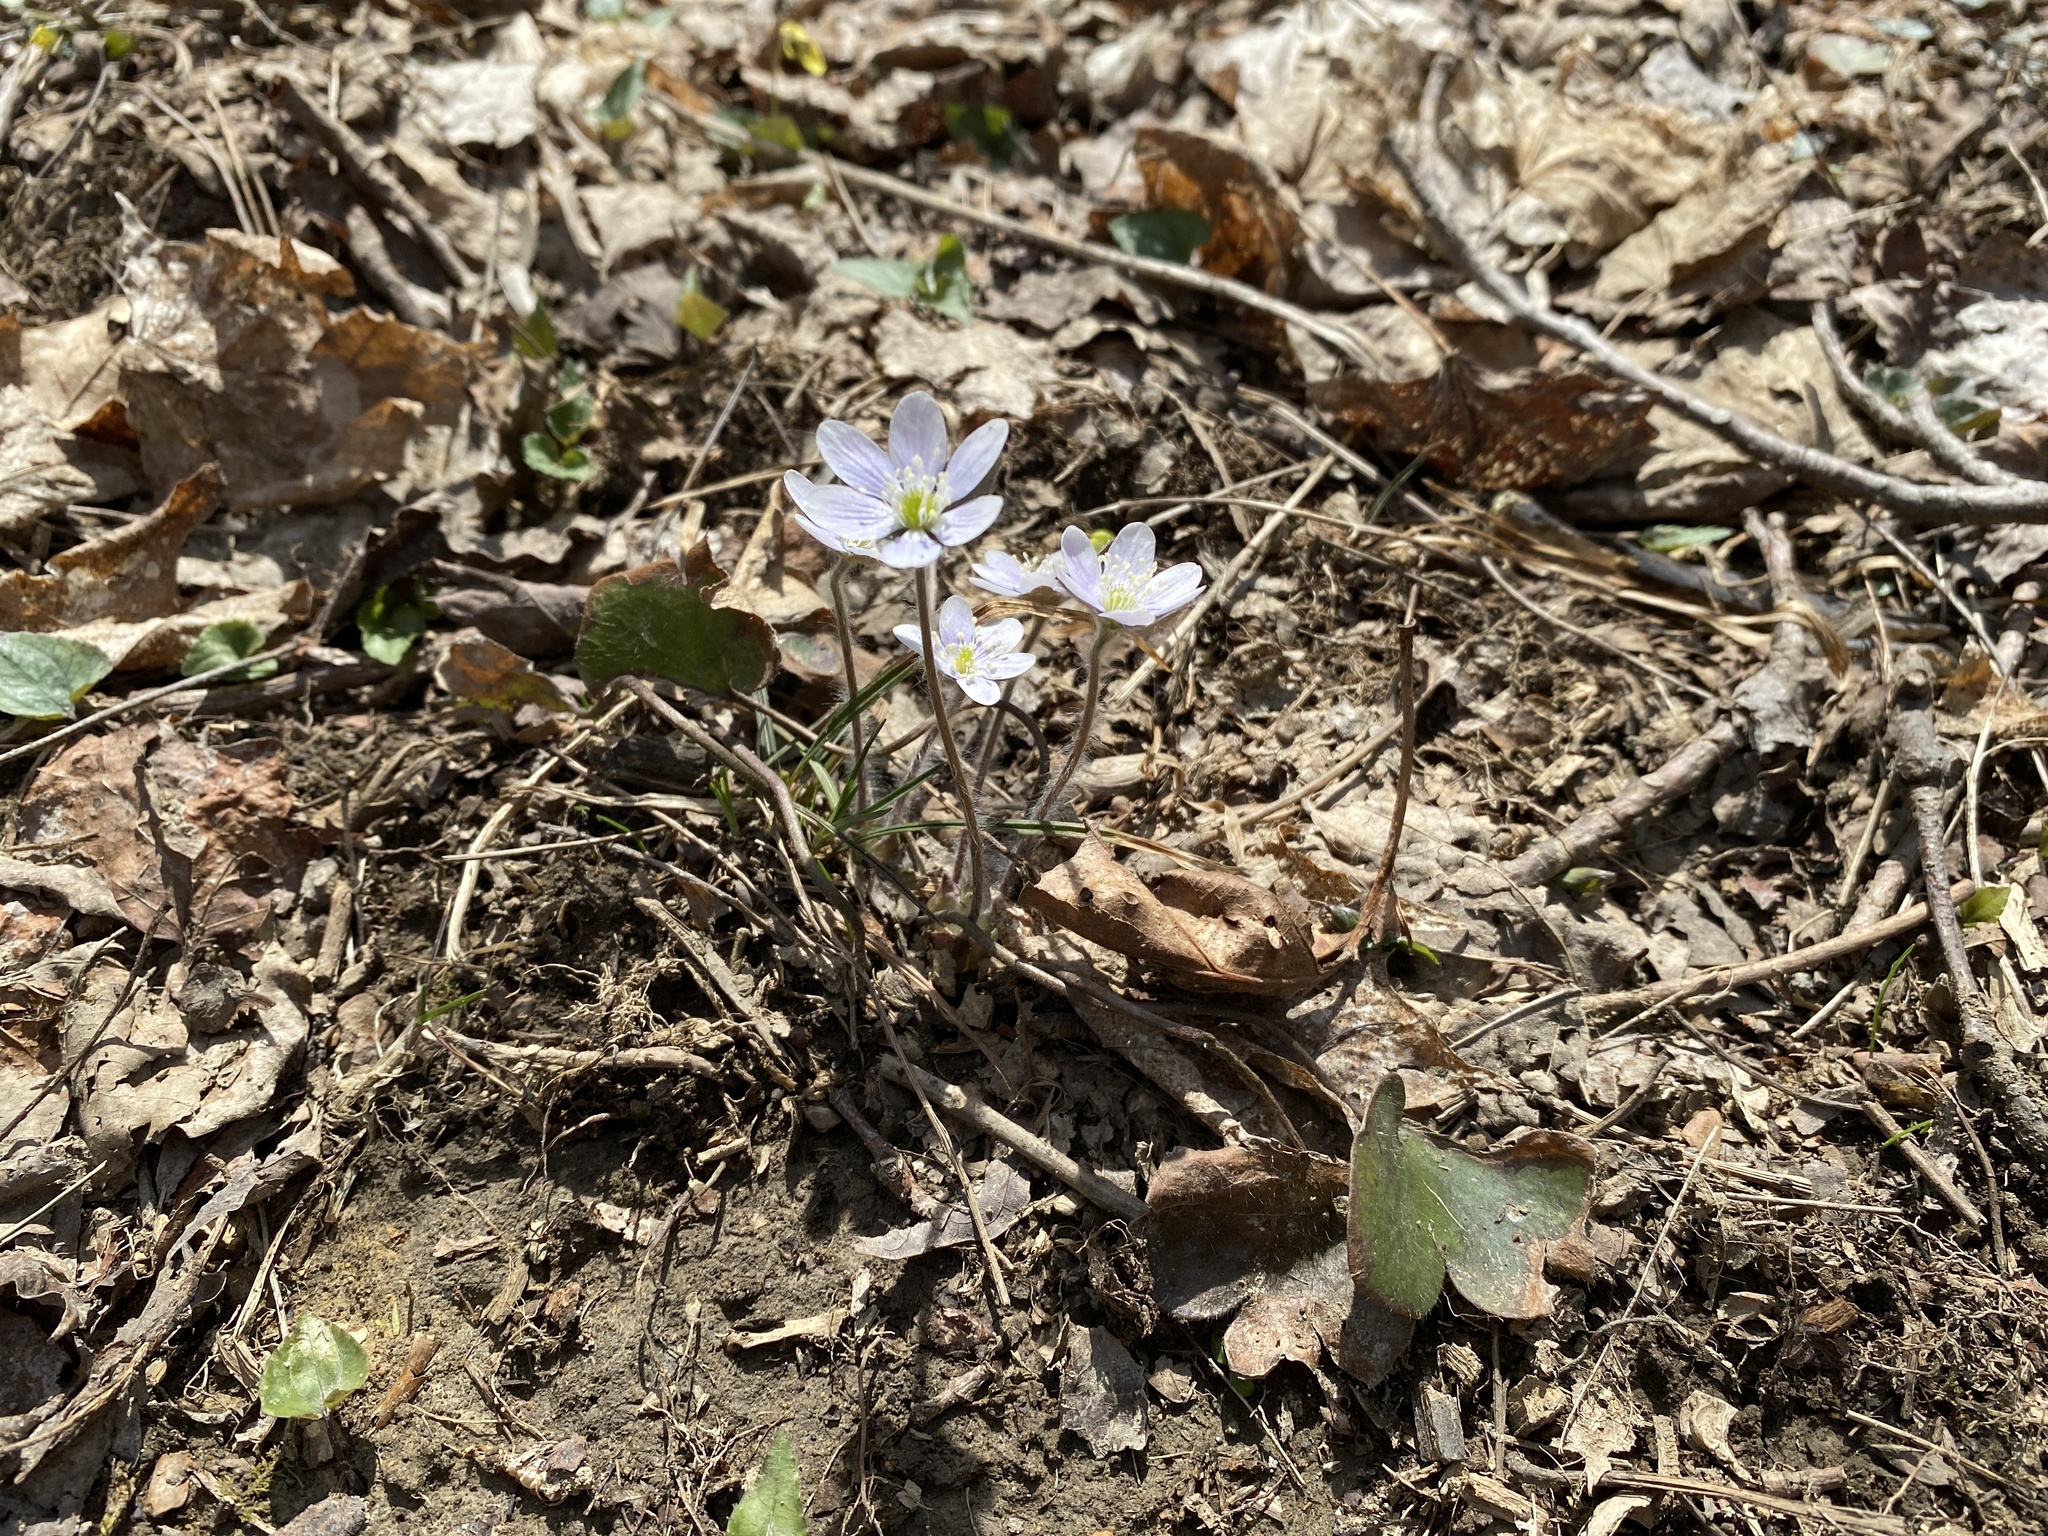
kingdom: Plantae
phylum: Tracheophyta
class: Magnoliopsida
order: Ranunculales
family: Ranunculaceae
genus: Hepatica
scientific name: Hepatica americana
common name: American hepatica
